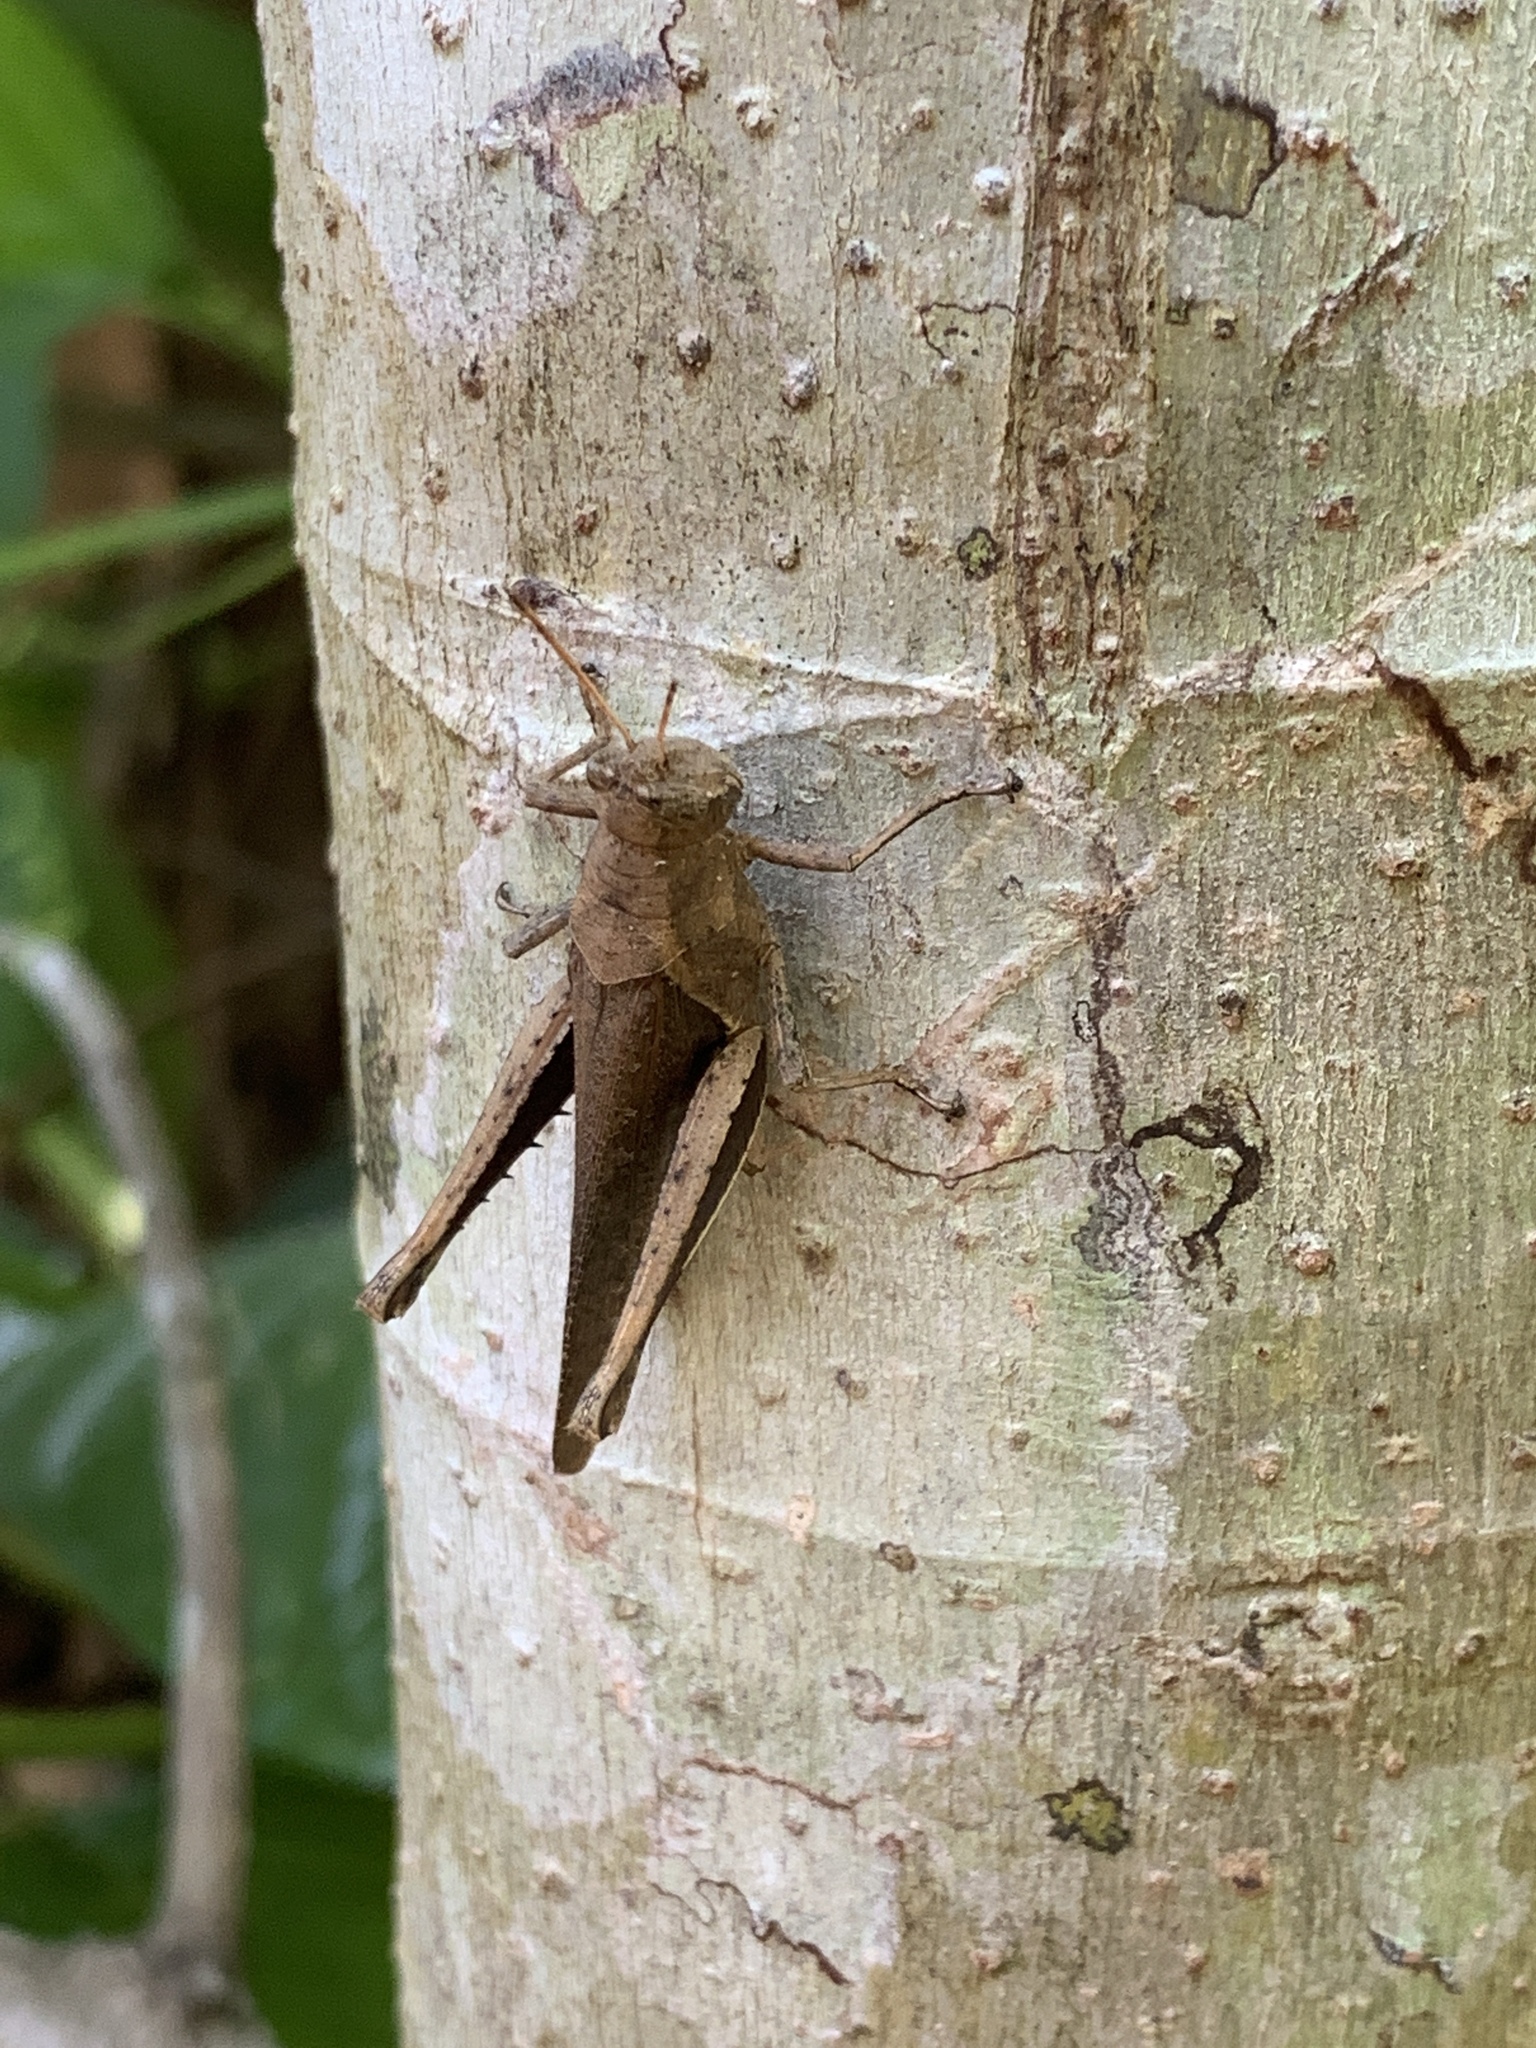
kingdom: Animalia
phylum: Arthropoda
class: Insecta
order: Orthoptera
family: Acrididae
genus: Abracris
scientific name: Abracris flavolineata
